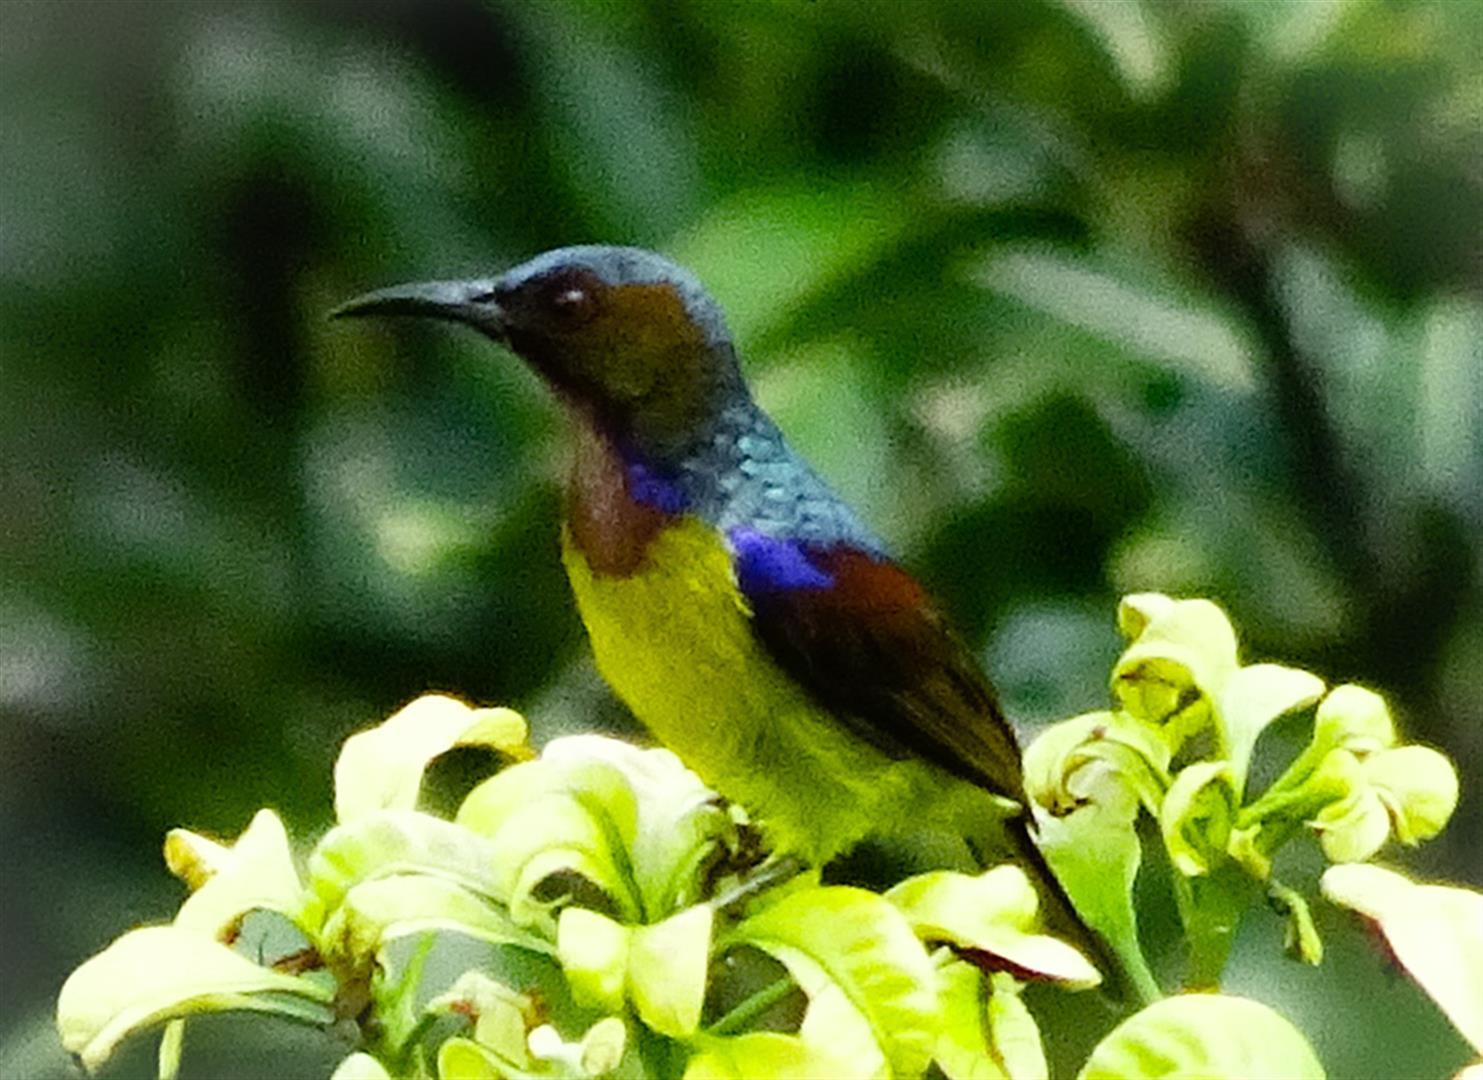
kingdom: Animalia
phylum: Chordata
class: Aves
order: Passeriformes
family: Nectariniidae
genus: Anthreptes
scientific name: Anthreptes malacensis
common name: Brown-throated sunbird
